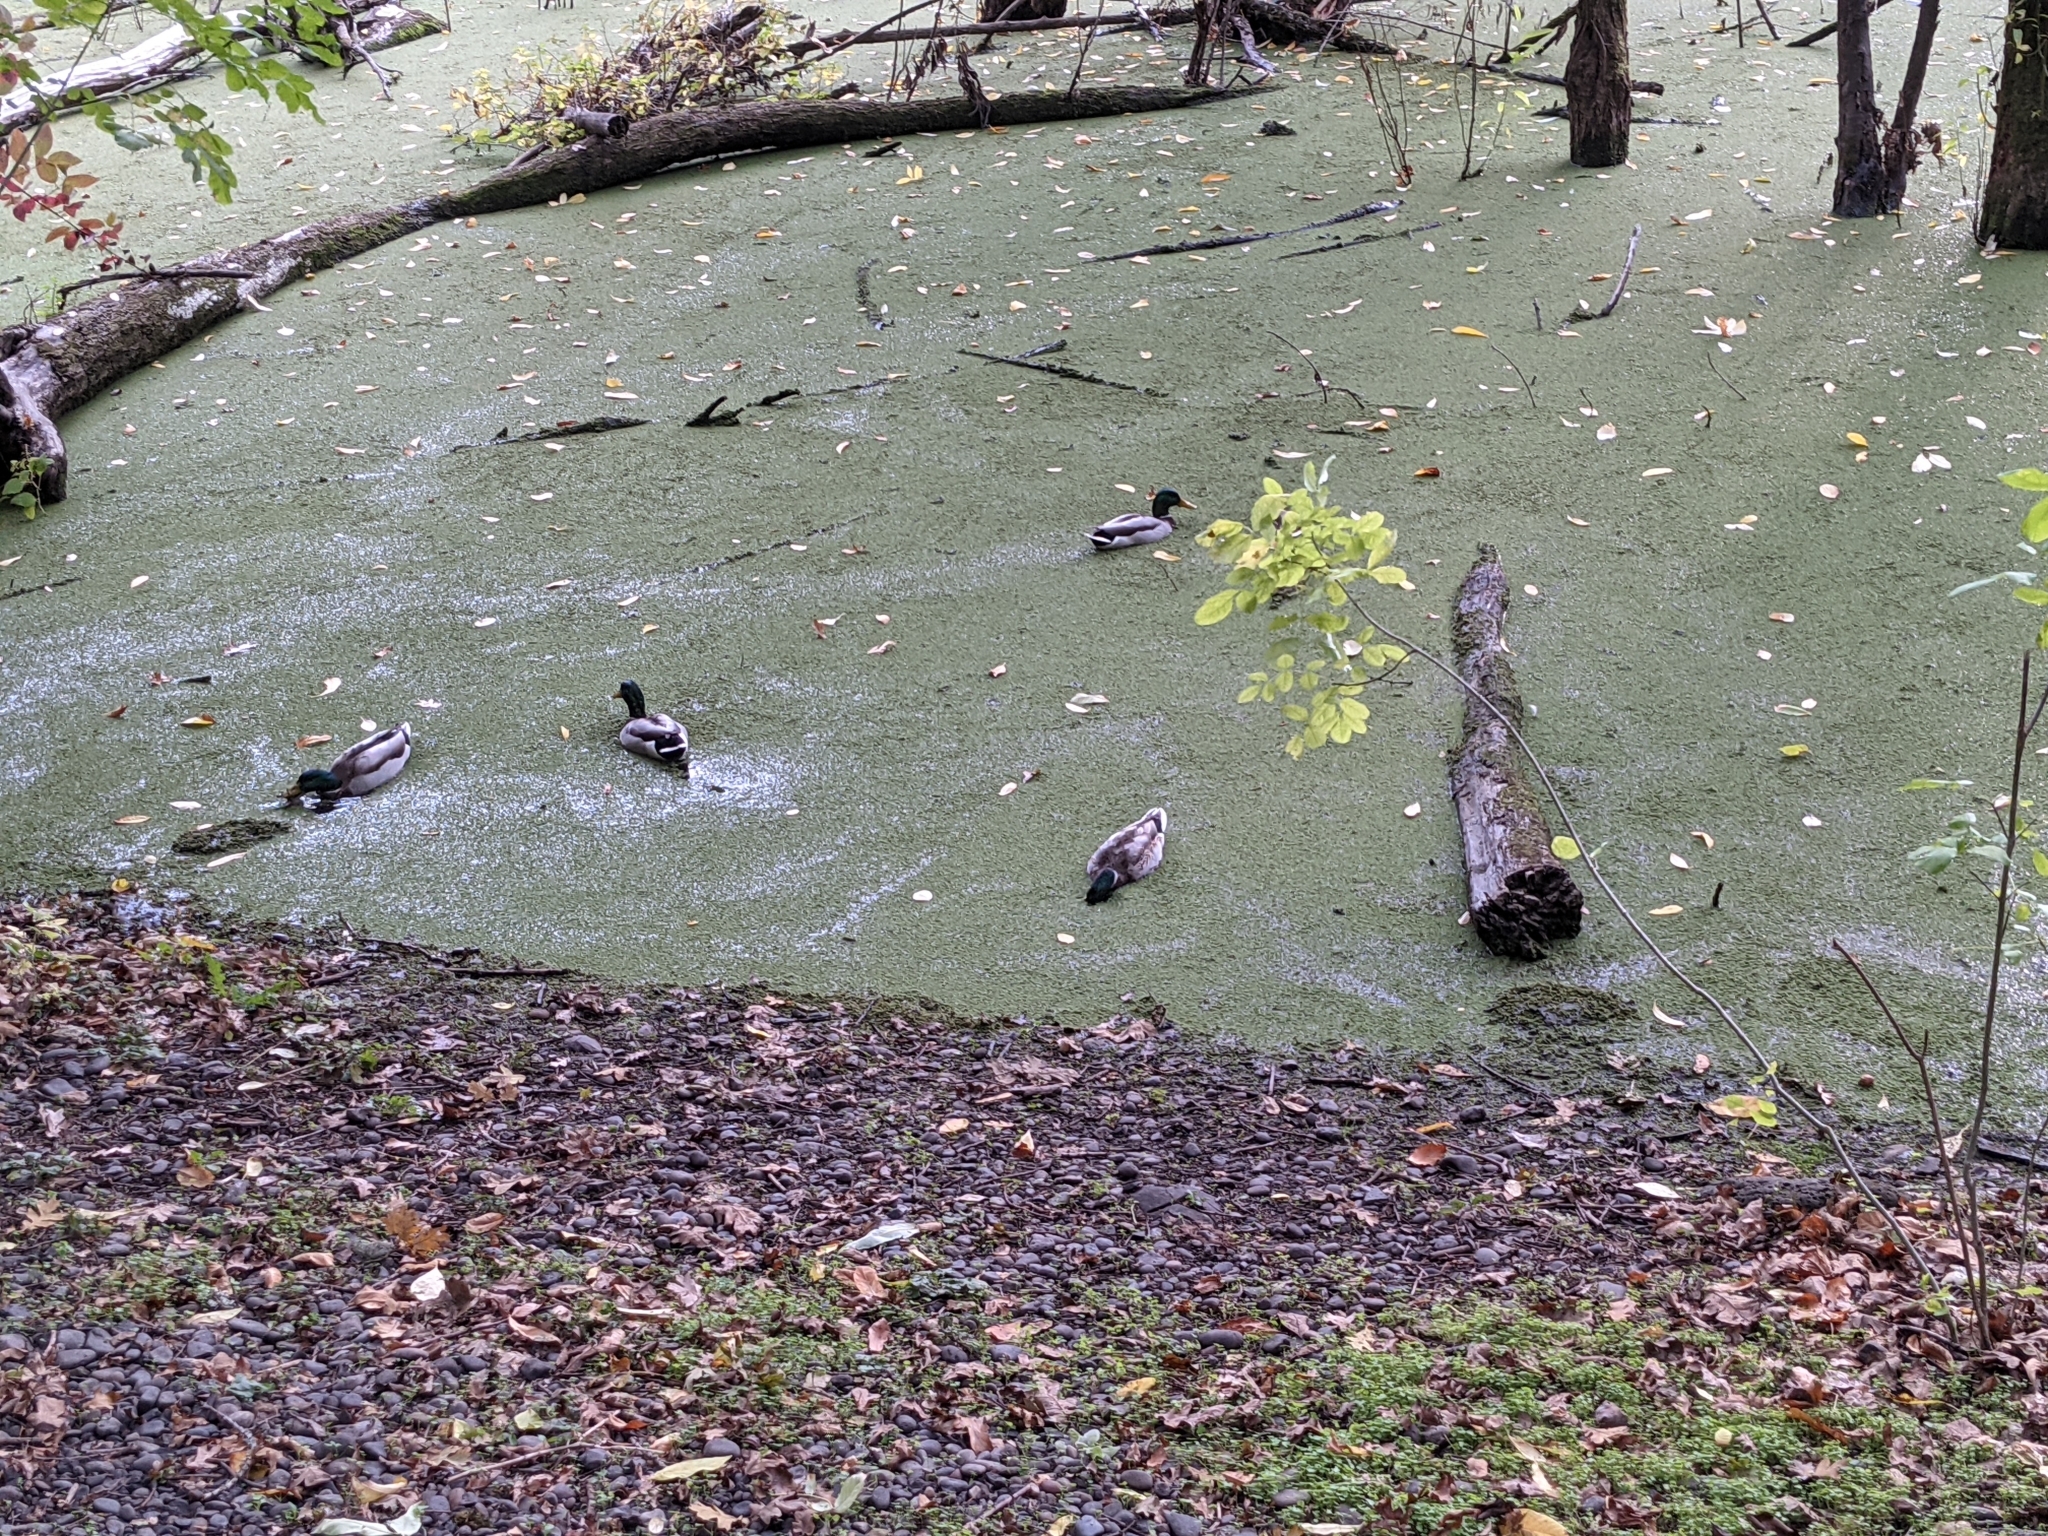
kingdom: Animalia
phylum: Chordata
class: Aves
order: Anseriformes
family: Anatidae
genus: Anas
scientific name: Anas platyrhynchos
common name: Mallard
